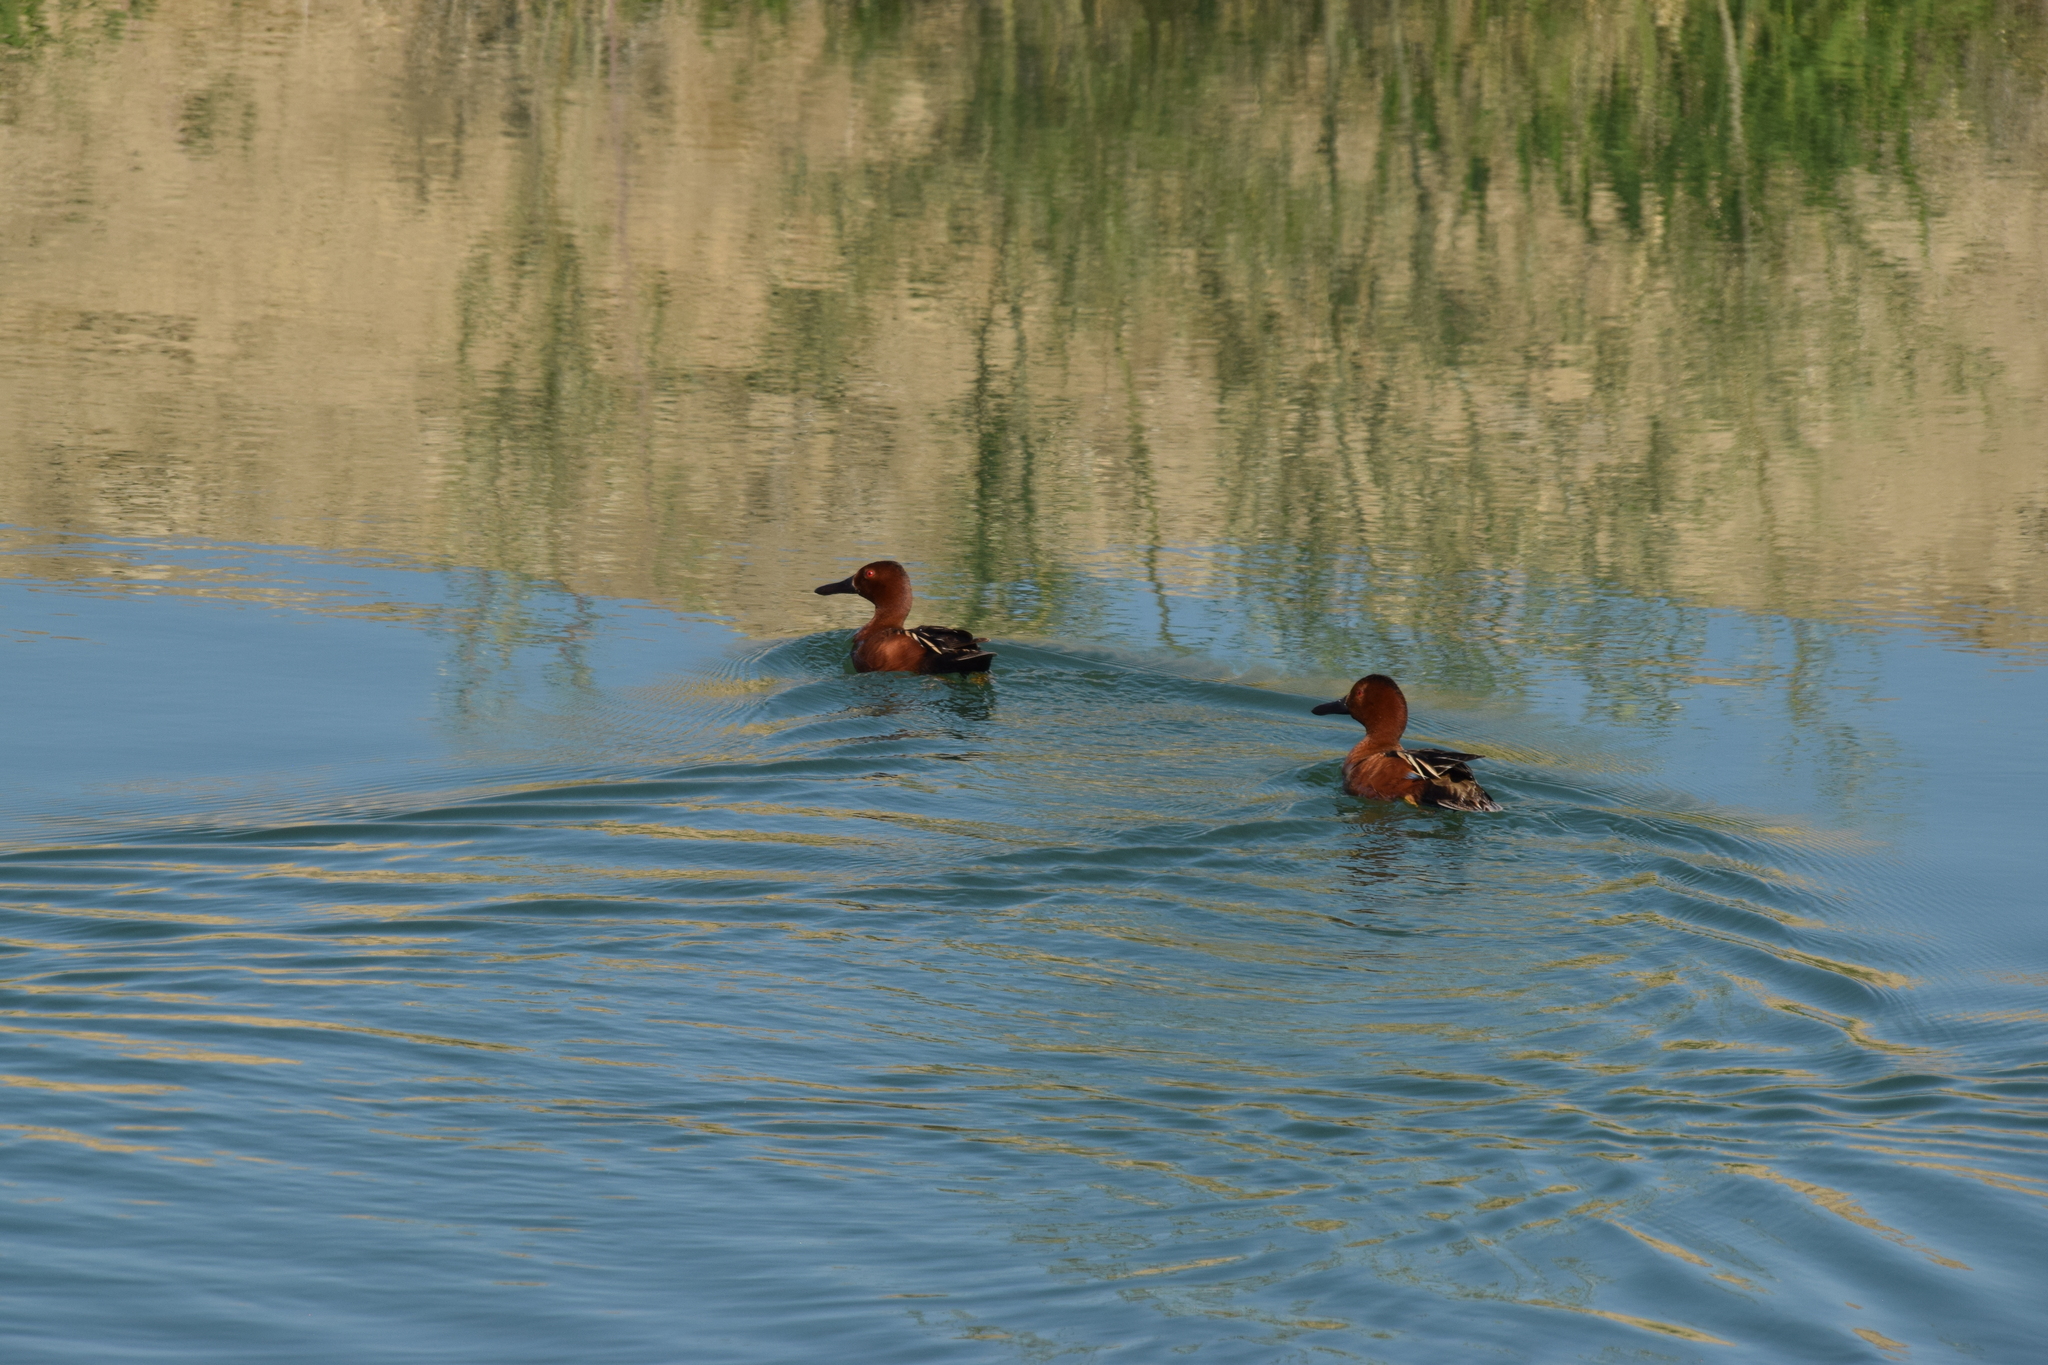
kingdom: Animalia
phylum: Chordata
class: Aves
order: Anseriformes
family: Anatidae
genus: Spatula
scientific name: Spatula cyanoptera
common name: Cinnamon teal
